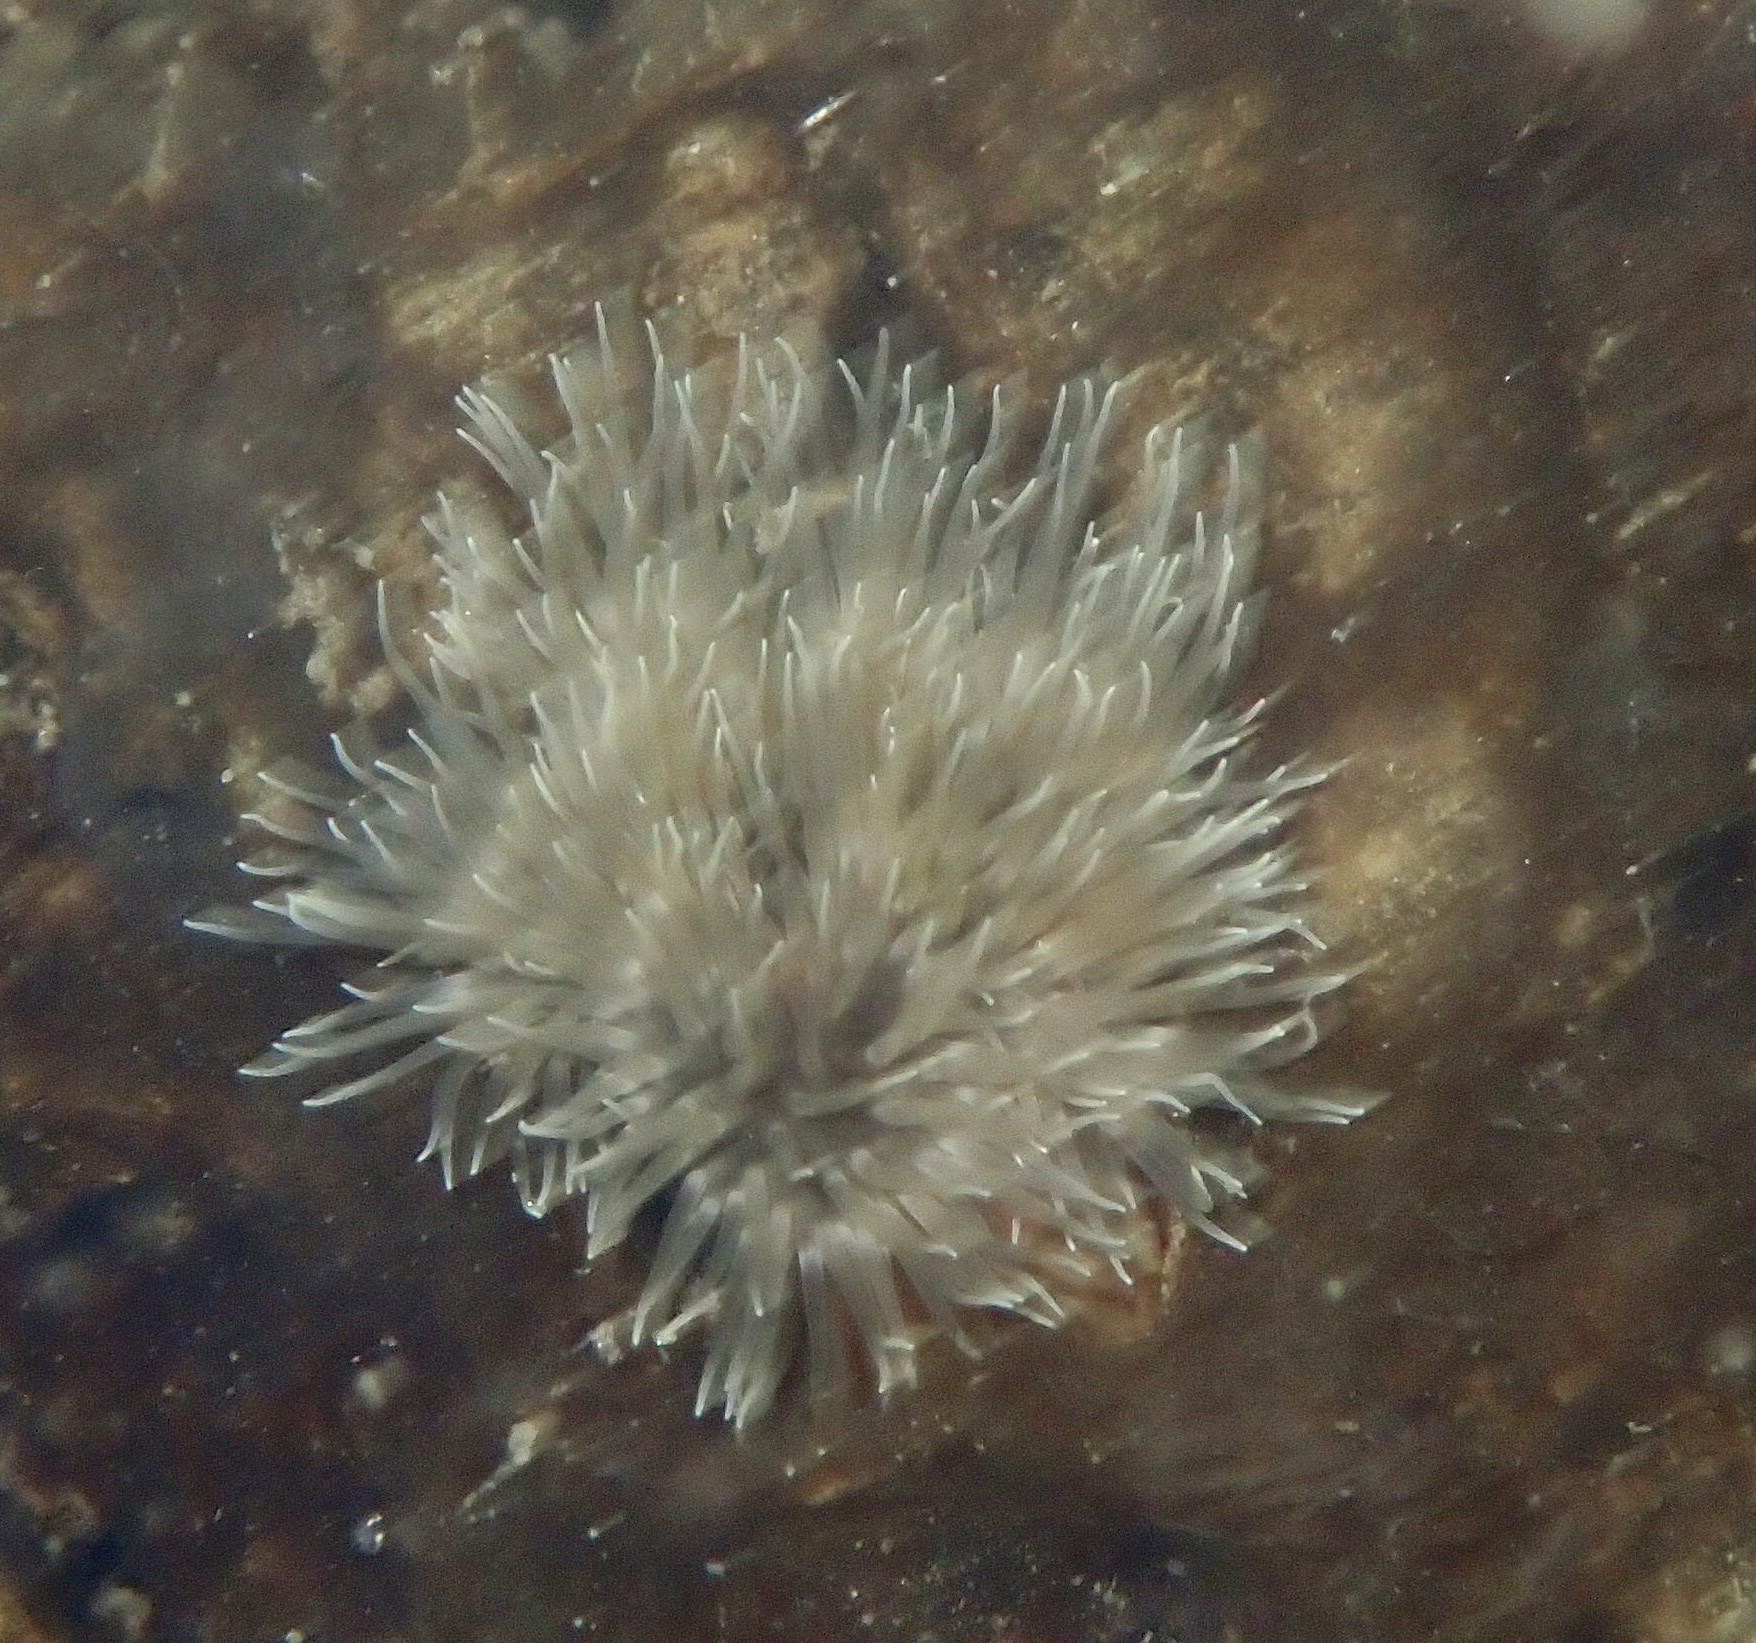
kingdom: Animalia
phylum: Cnidaria
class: Anthozoa
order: Actiniaria
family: Metridiidae
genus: Metridium
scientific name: Metridium senile
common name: Clonal plumose anemone
